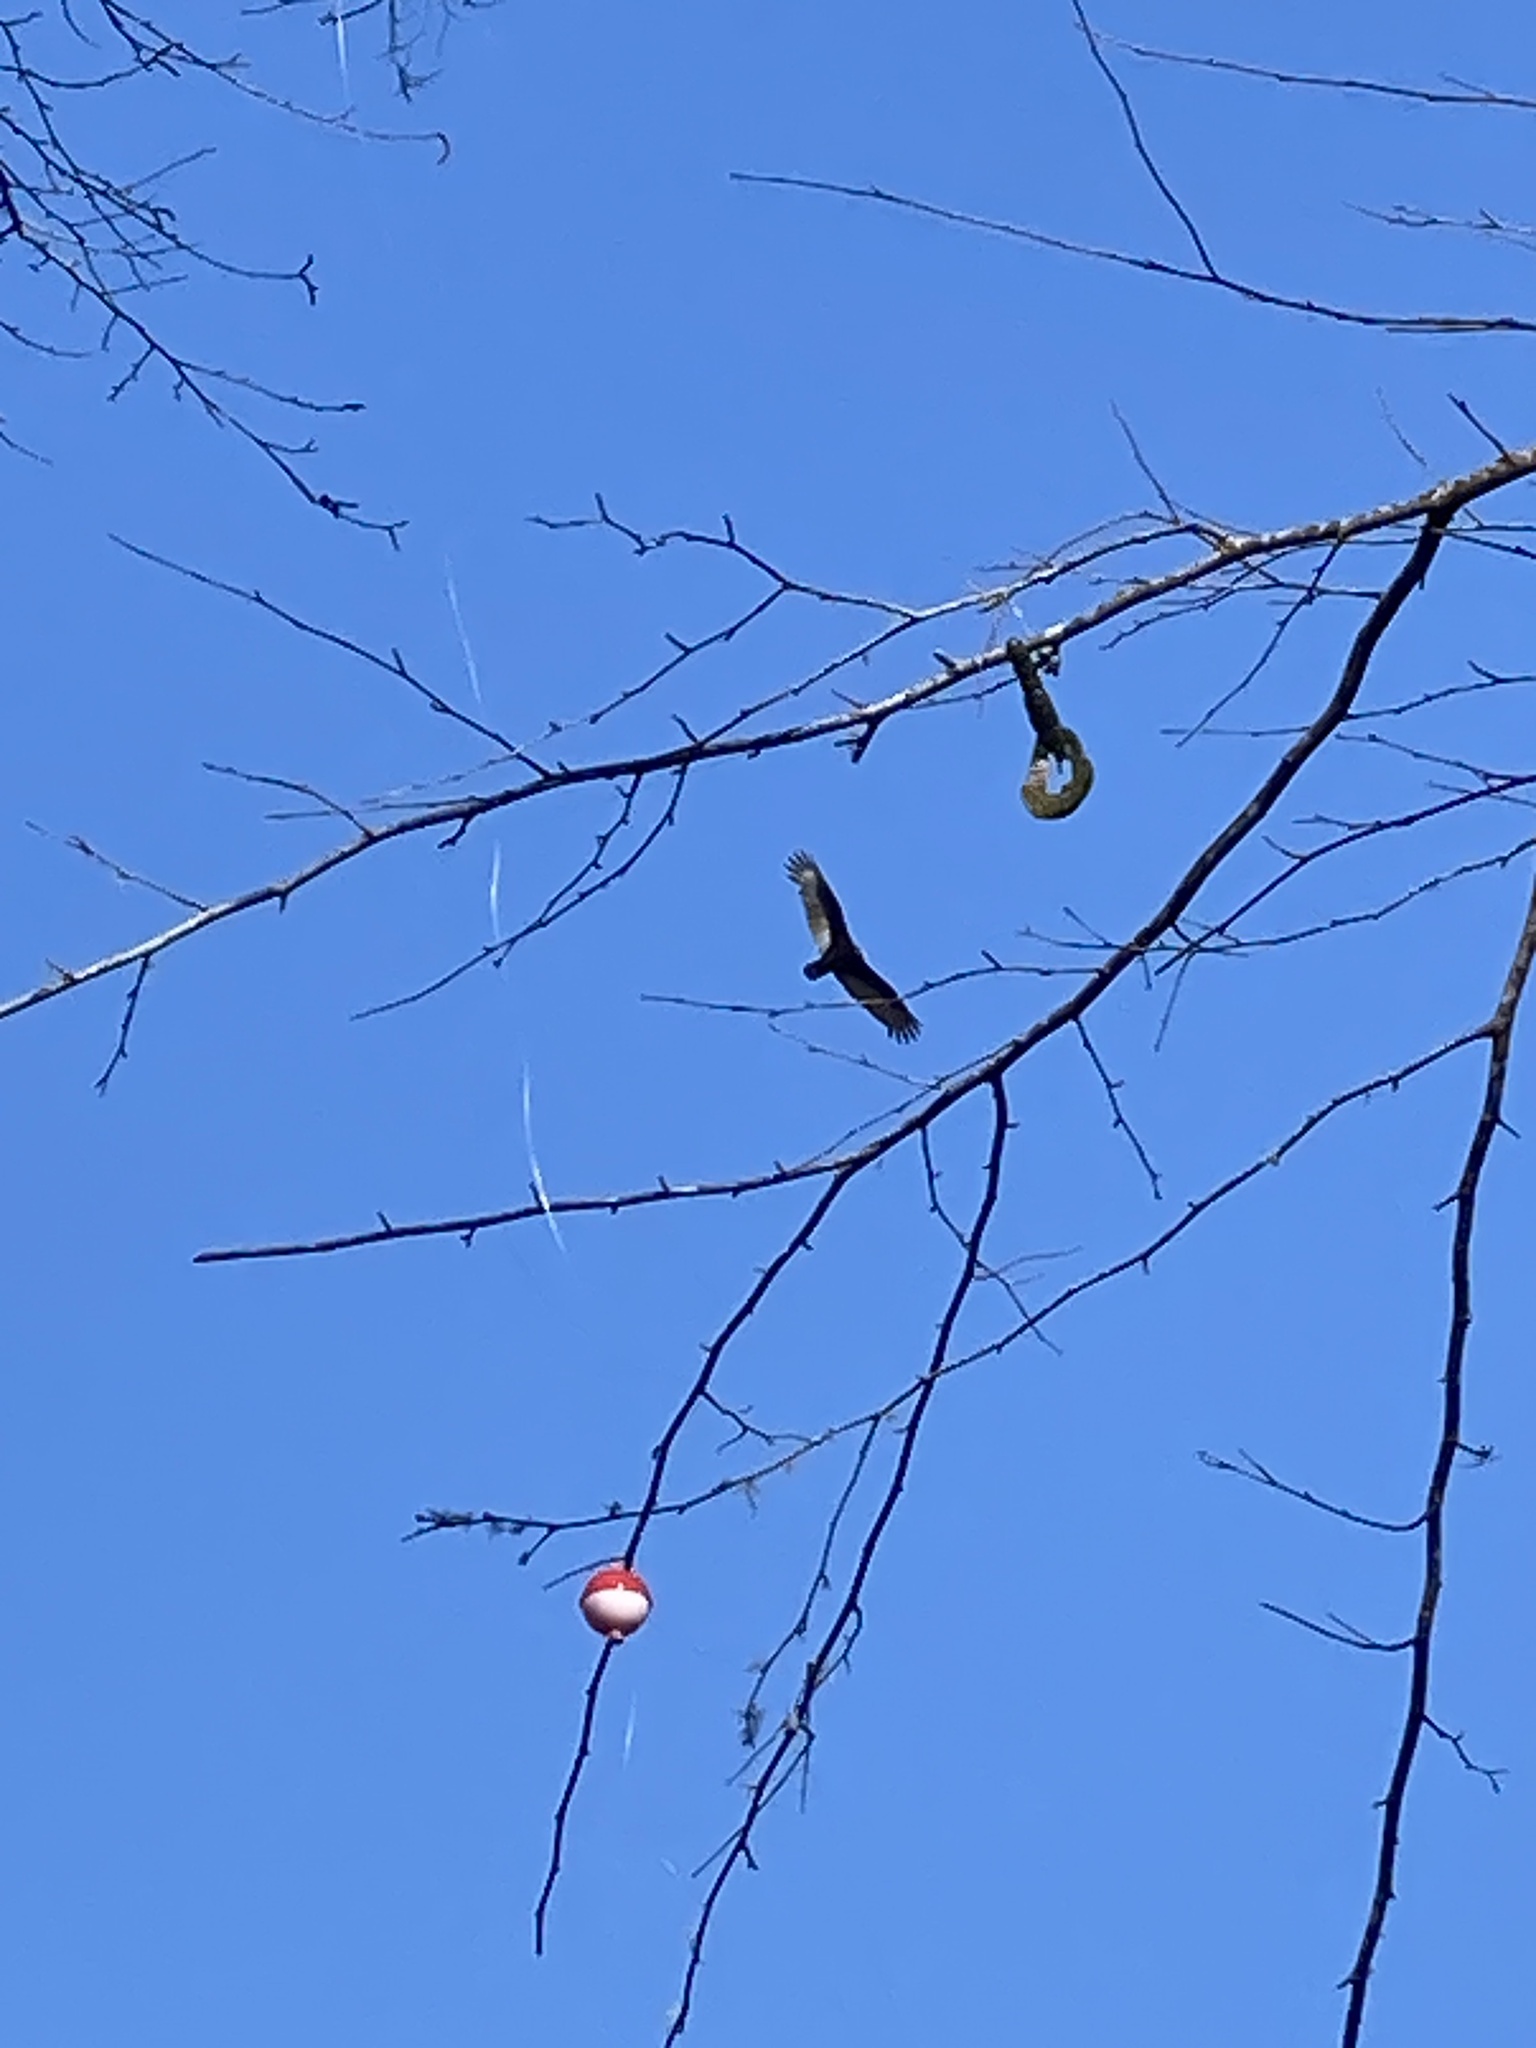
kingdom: Animalia
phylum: Chordata
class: Aves
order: Accipitriformes
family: Cathartidae
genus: Cathartes
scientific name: Cathartes aura
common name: Turkey vulture
